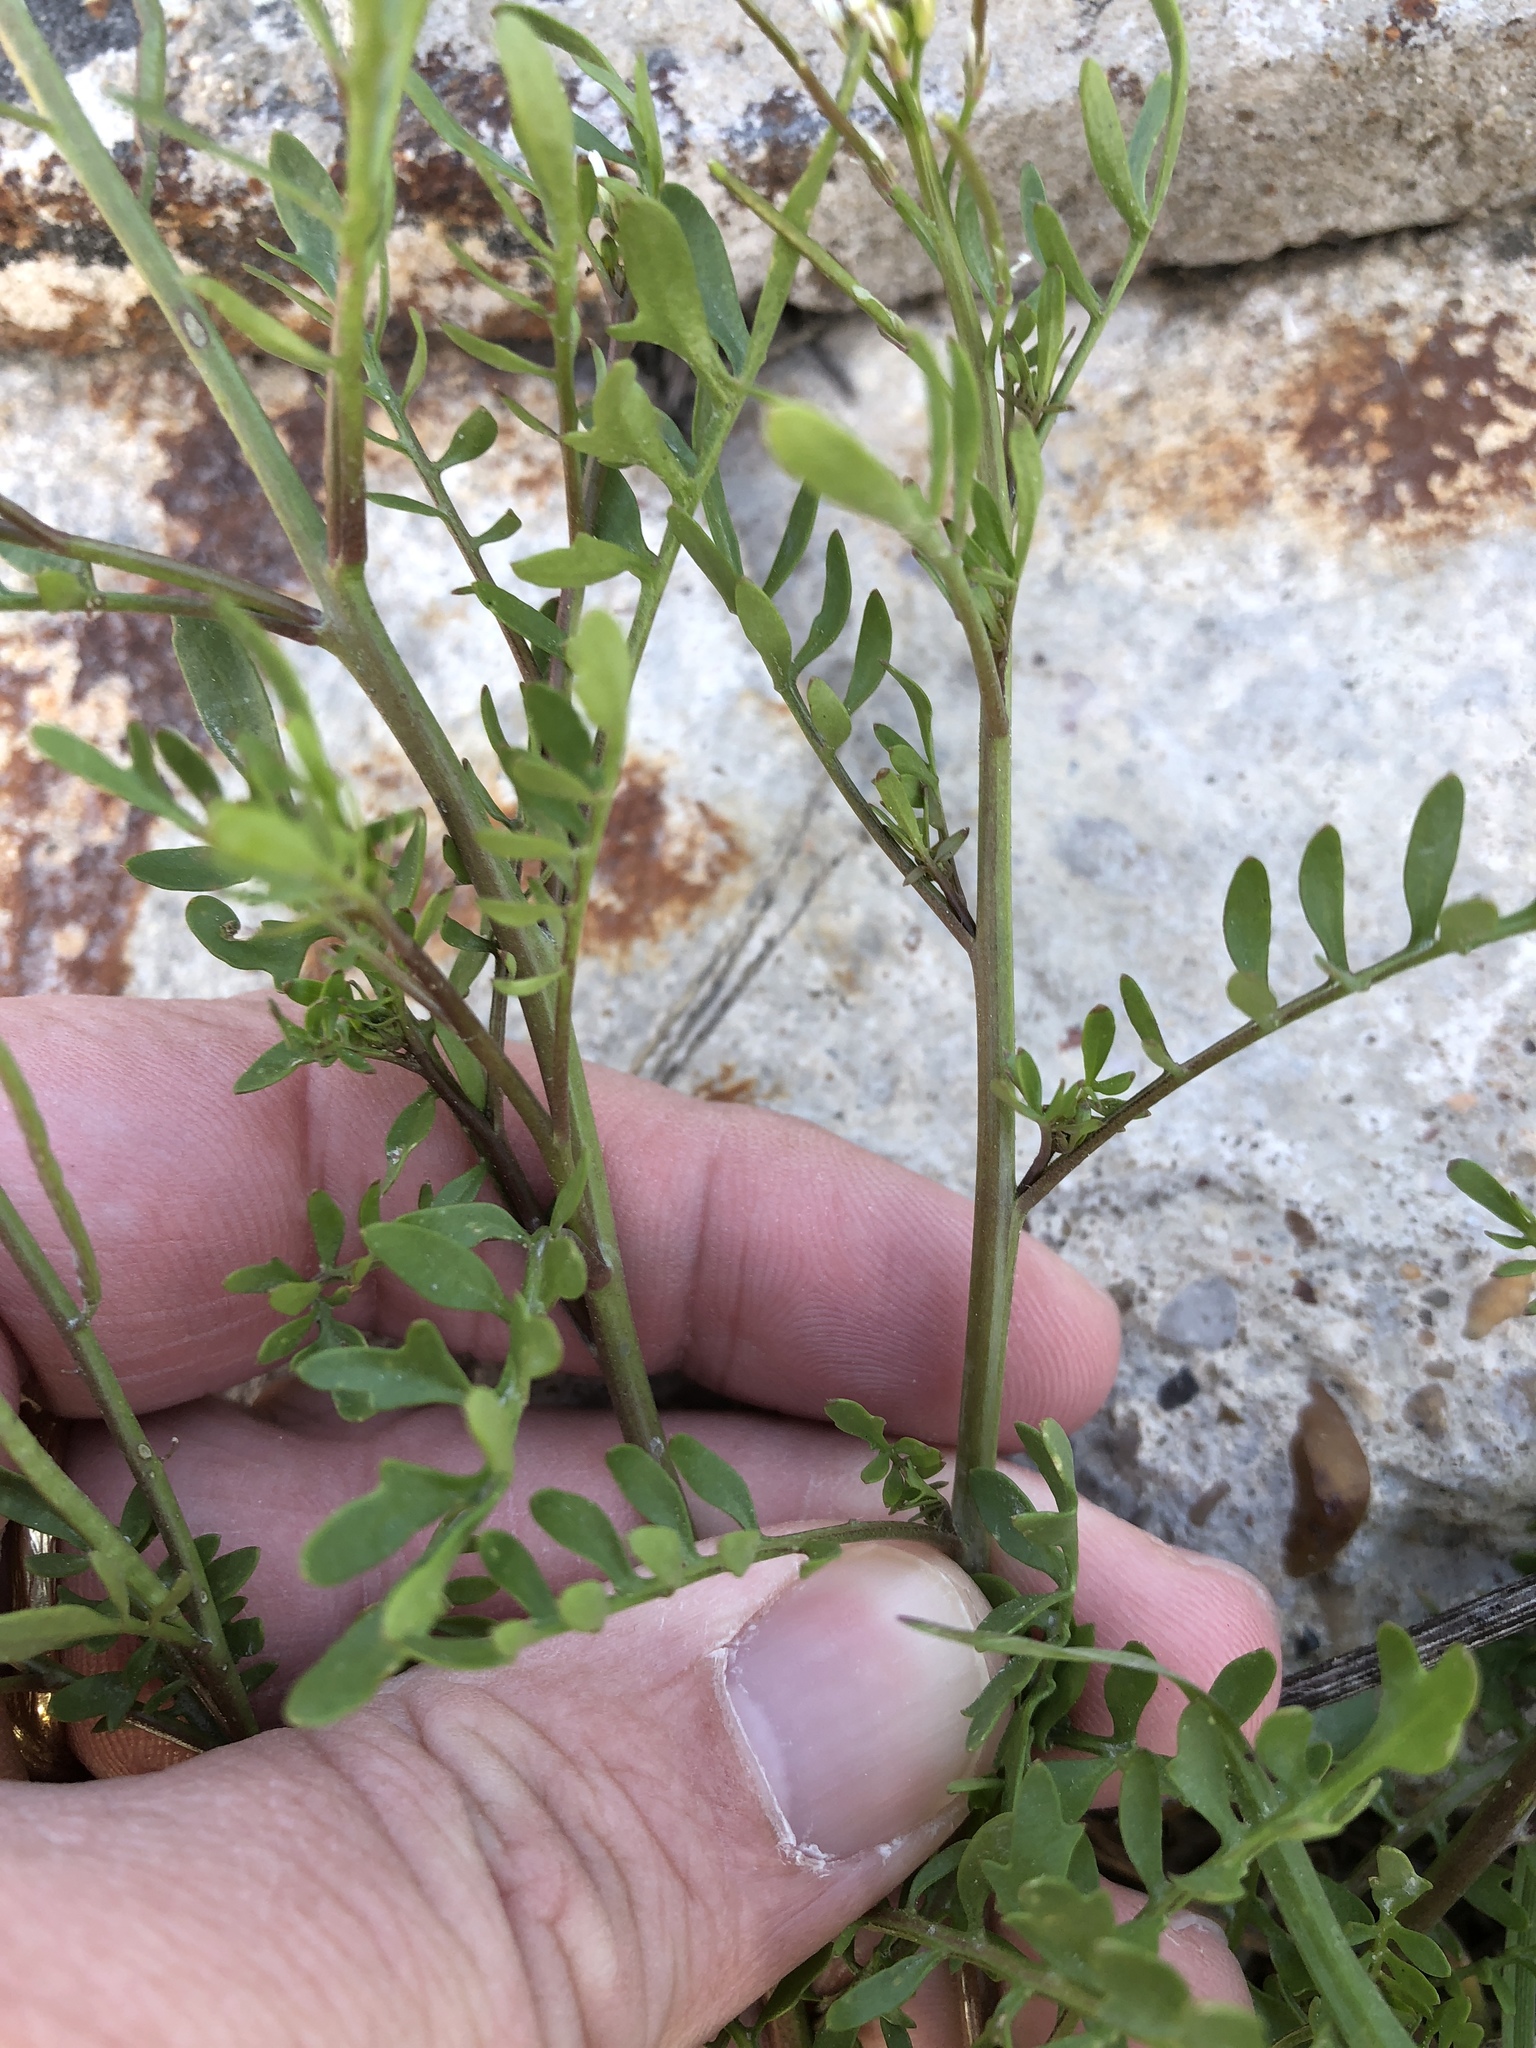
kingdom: Plantae
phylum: Tracheophyta
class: Magnoliopsida
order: Brassicales
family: Brassicaceae
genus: Planodes
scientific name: Planodes virginicum
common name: Virginia cress
